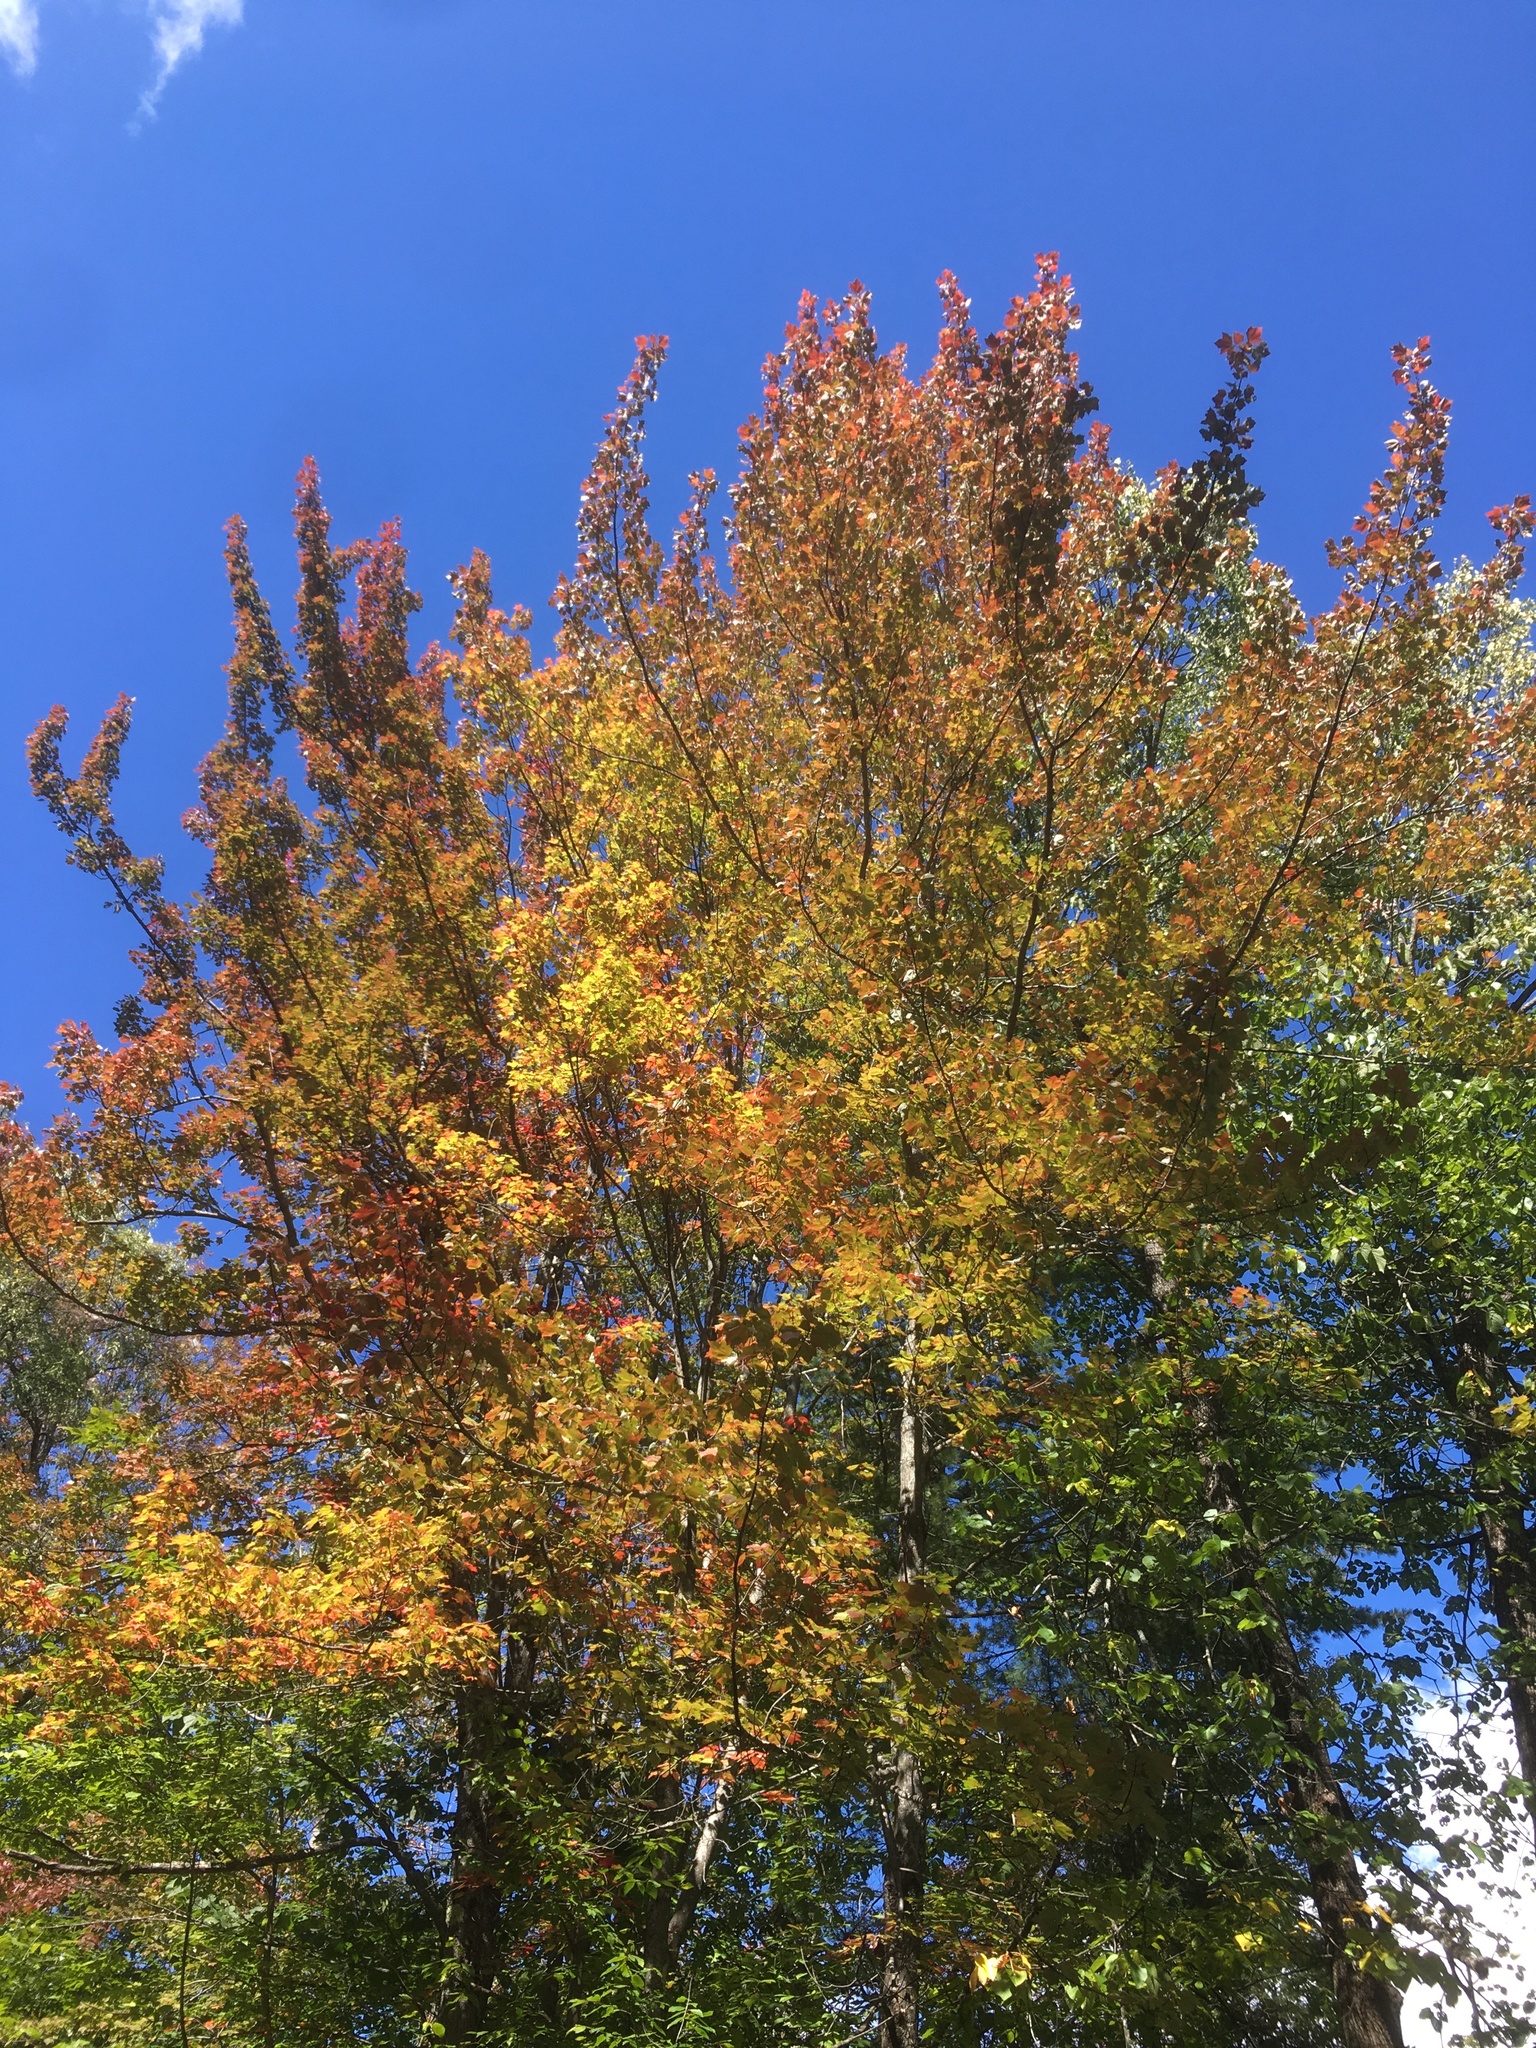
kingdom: Plantae
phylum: Tracheophyta
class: Magnoliopsida
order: Sapindales
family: Sapindaceae
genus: Acer
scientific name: Acer rubrum
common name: Red maple
